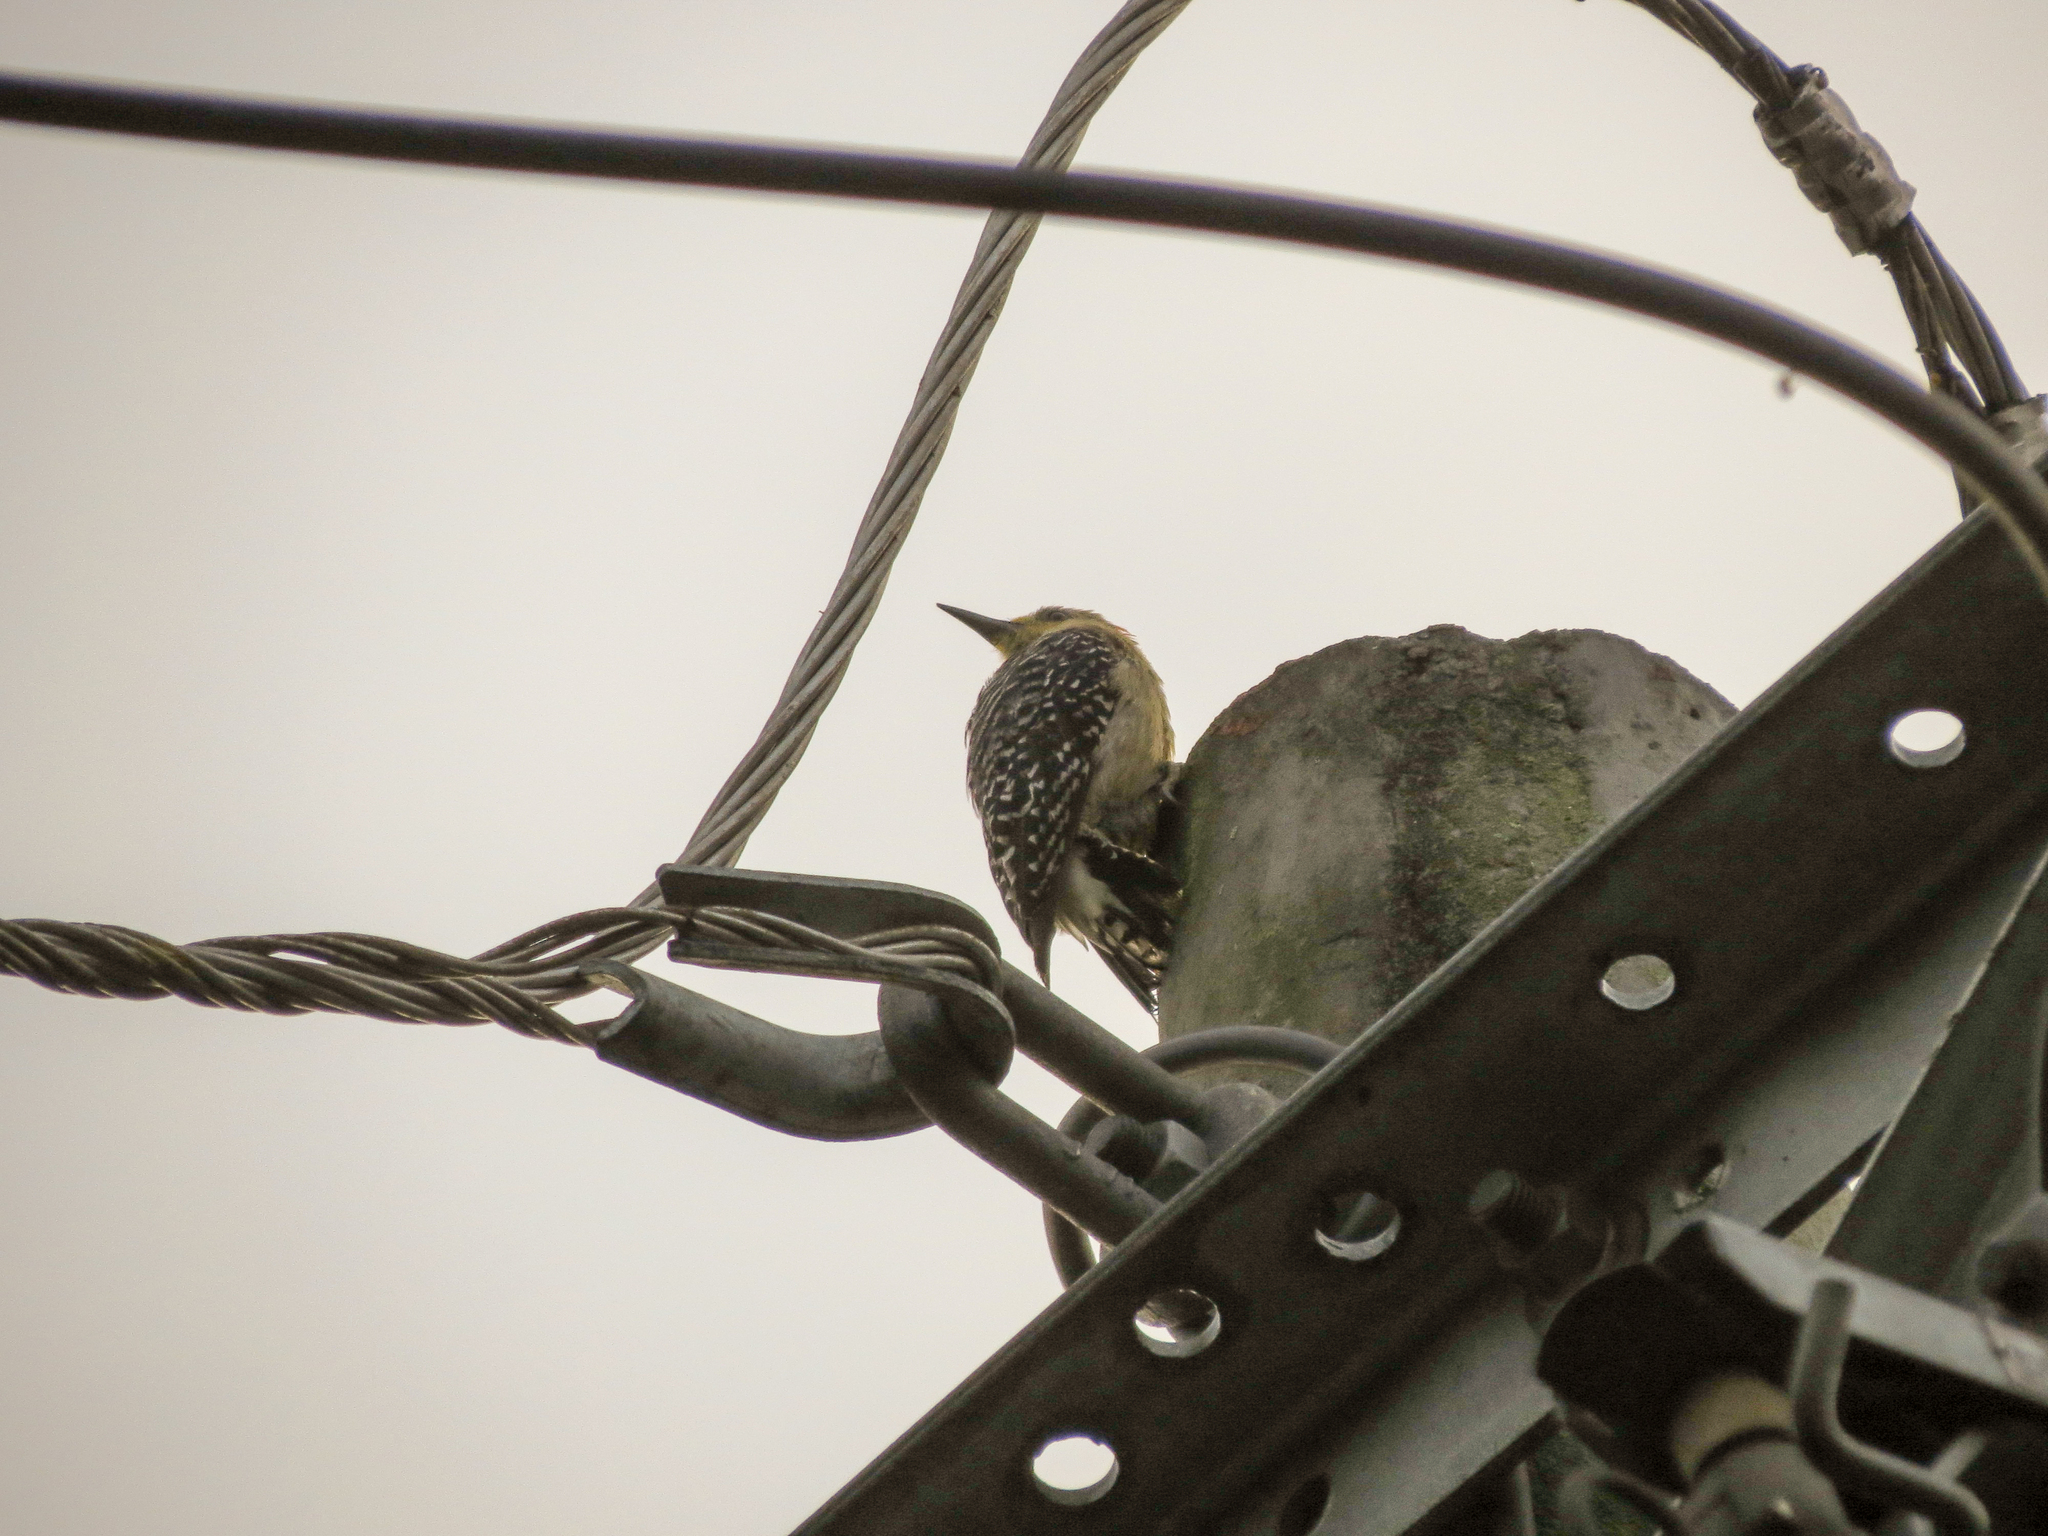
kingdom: Animalia
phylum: Chordata
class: Aves
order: Piciformes
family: Picidae
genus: Melanerpes
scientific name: Melanerpes rubricapillus
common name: Red-crowned woodpecker
